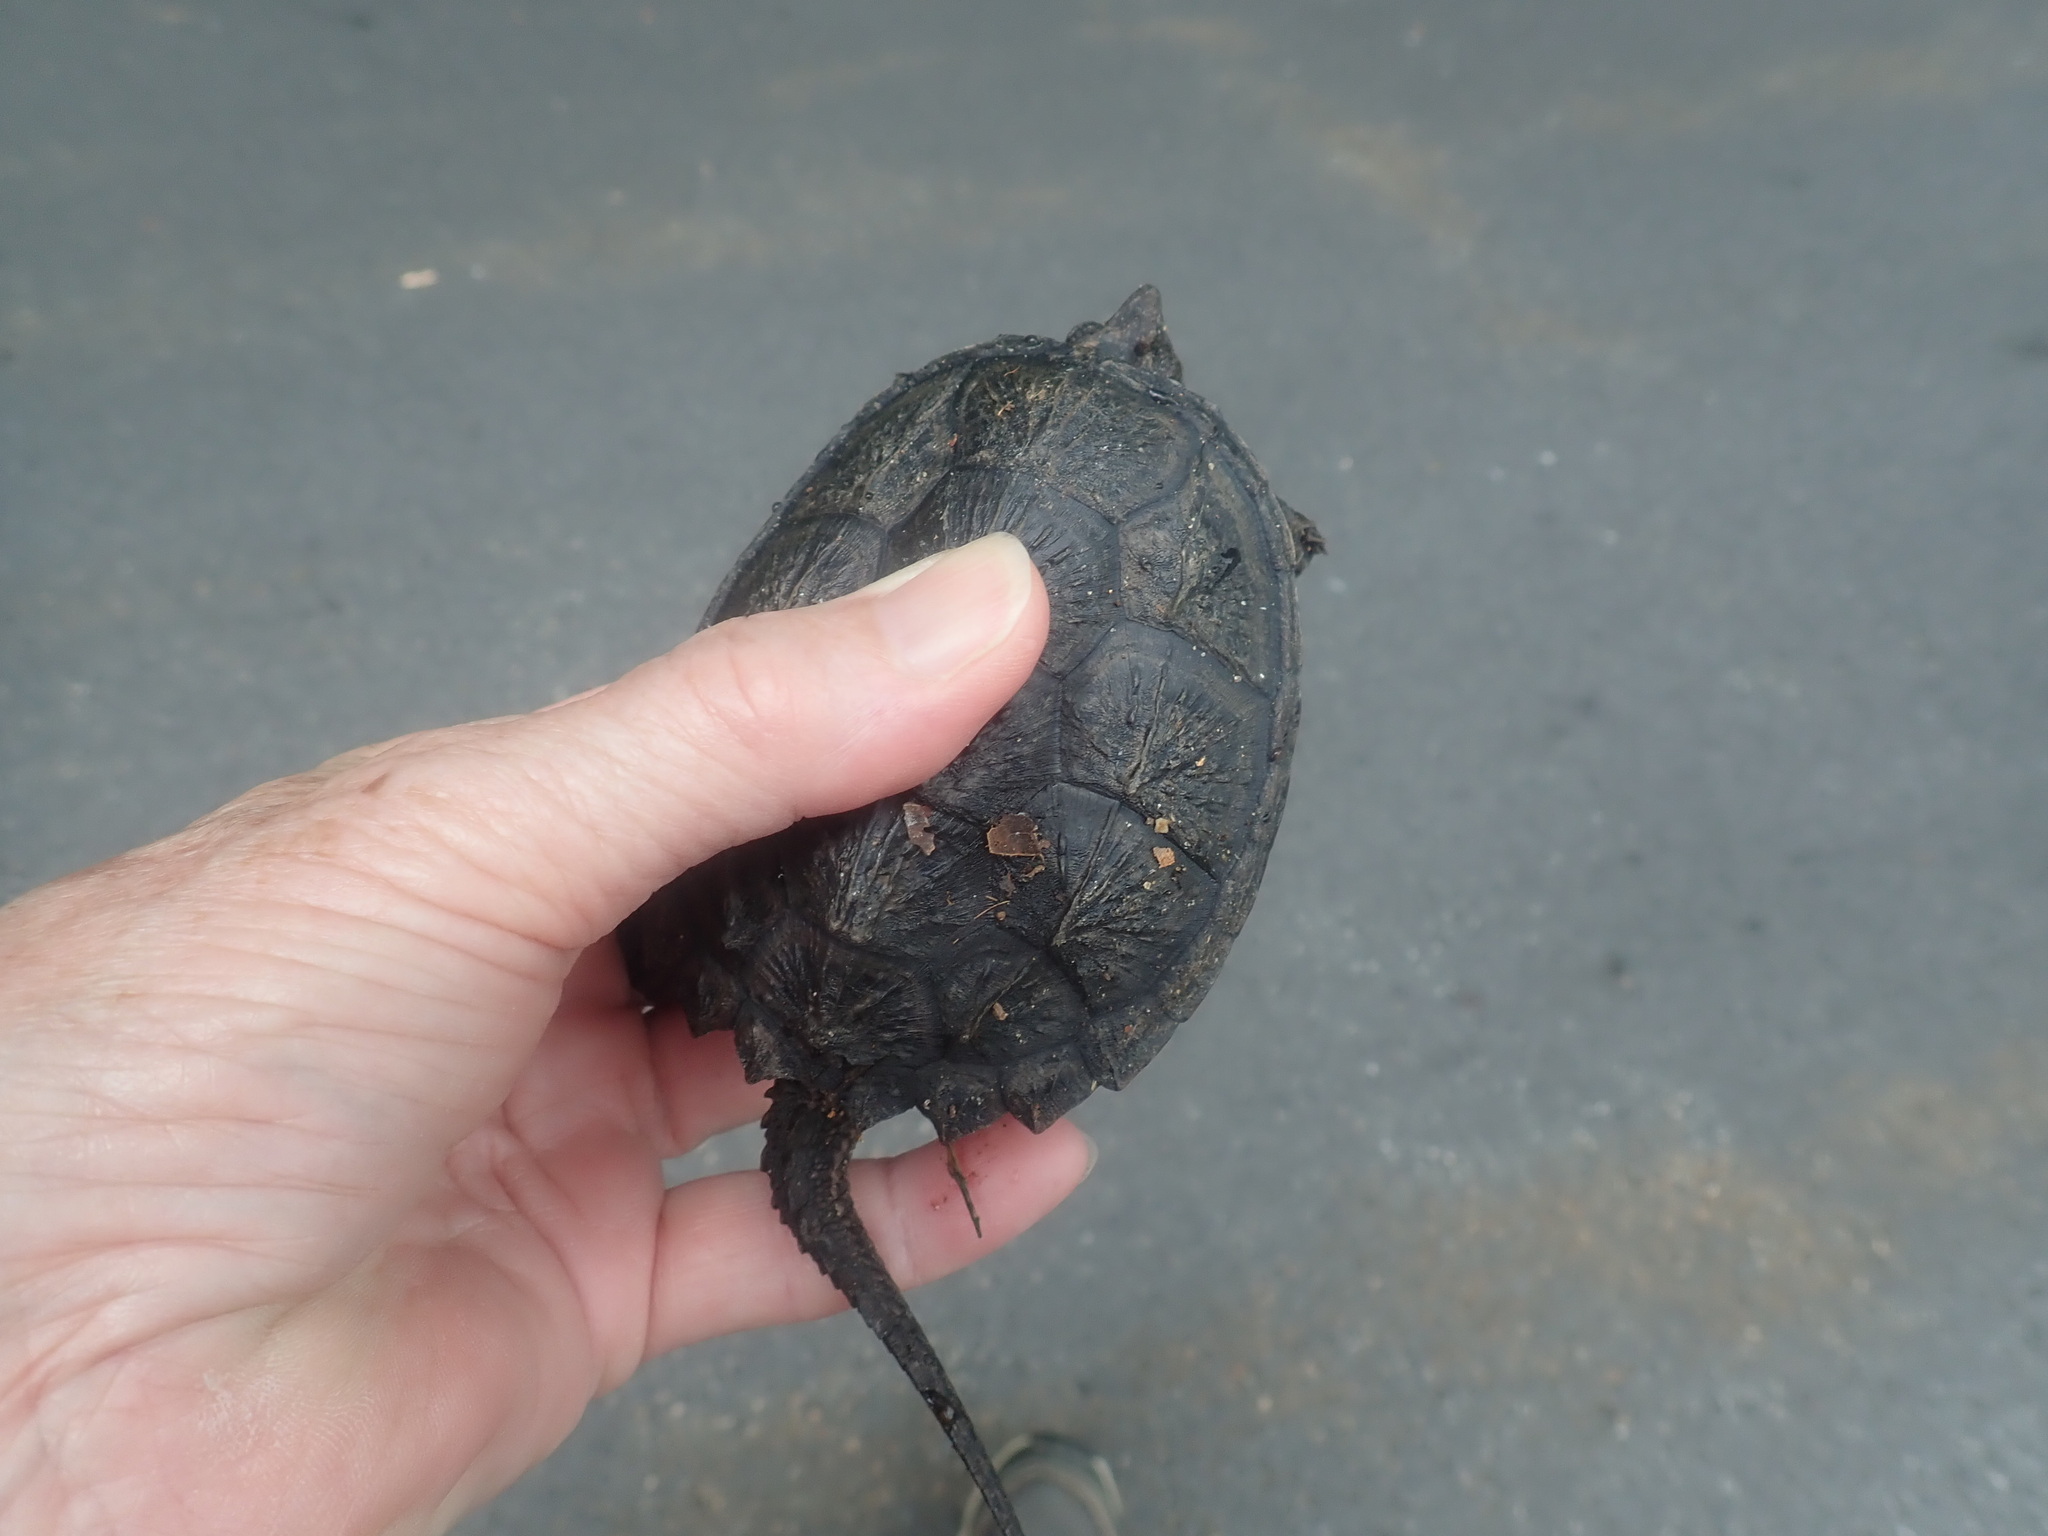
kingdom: Animalia
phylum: Chordata
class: Testudines
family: Chelydridae
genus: Chelydra
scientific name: Chelydra serpentina
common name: Common snapping turtle
